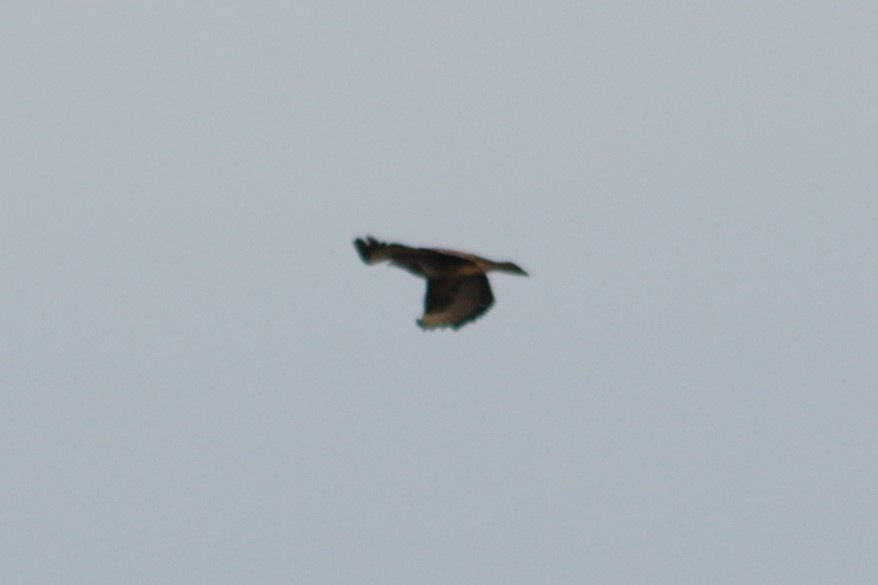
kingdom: Animalia
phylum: Chordata
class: Aves
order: Accipitriformes
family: Accipitridae
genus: Buteo
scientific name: Buteo buteo
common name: Common buzzard
